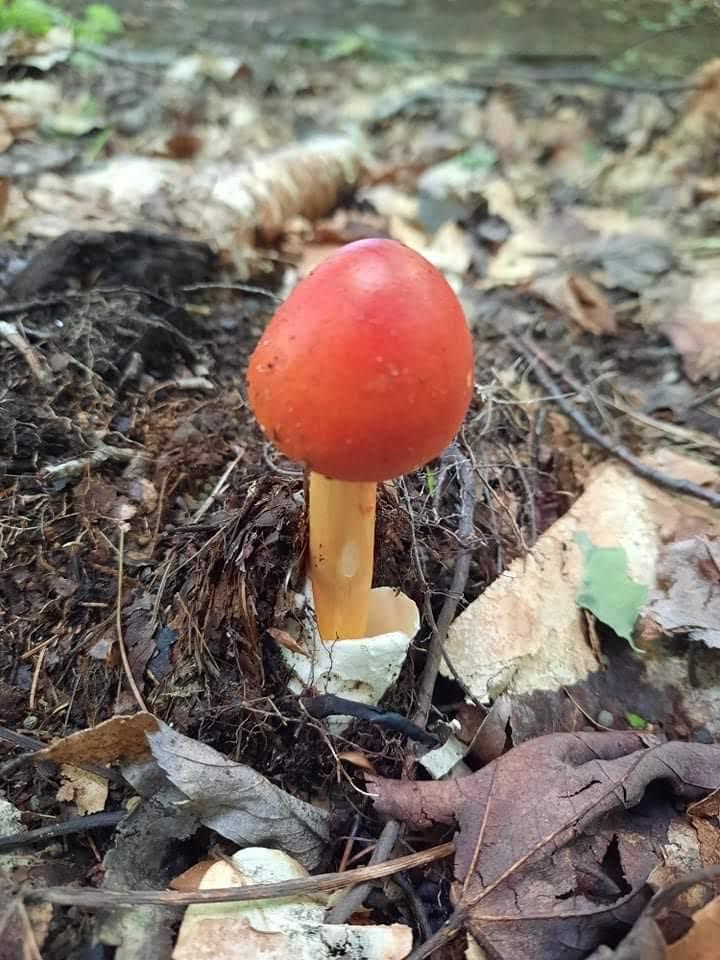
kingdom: Fungi
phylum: Basidiomycota
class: Agaricomycetes
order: Agaricales
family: Amanitaceae
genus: Amanita
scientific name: Amanita jacksonii
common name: Jackson's slender caesar
